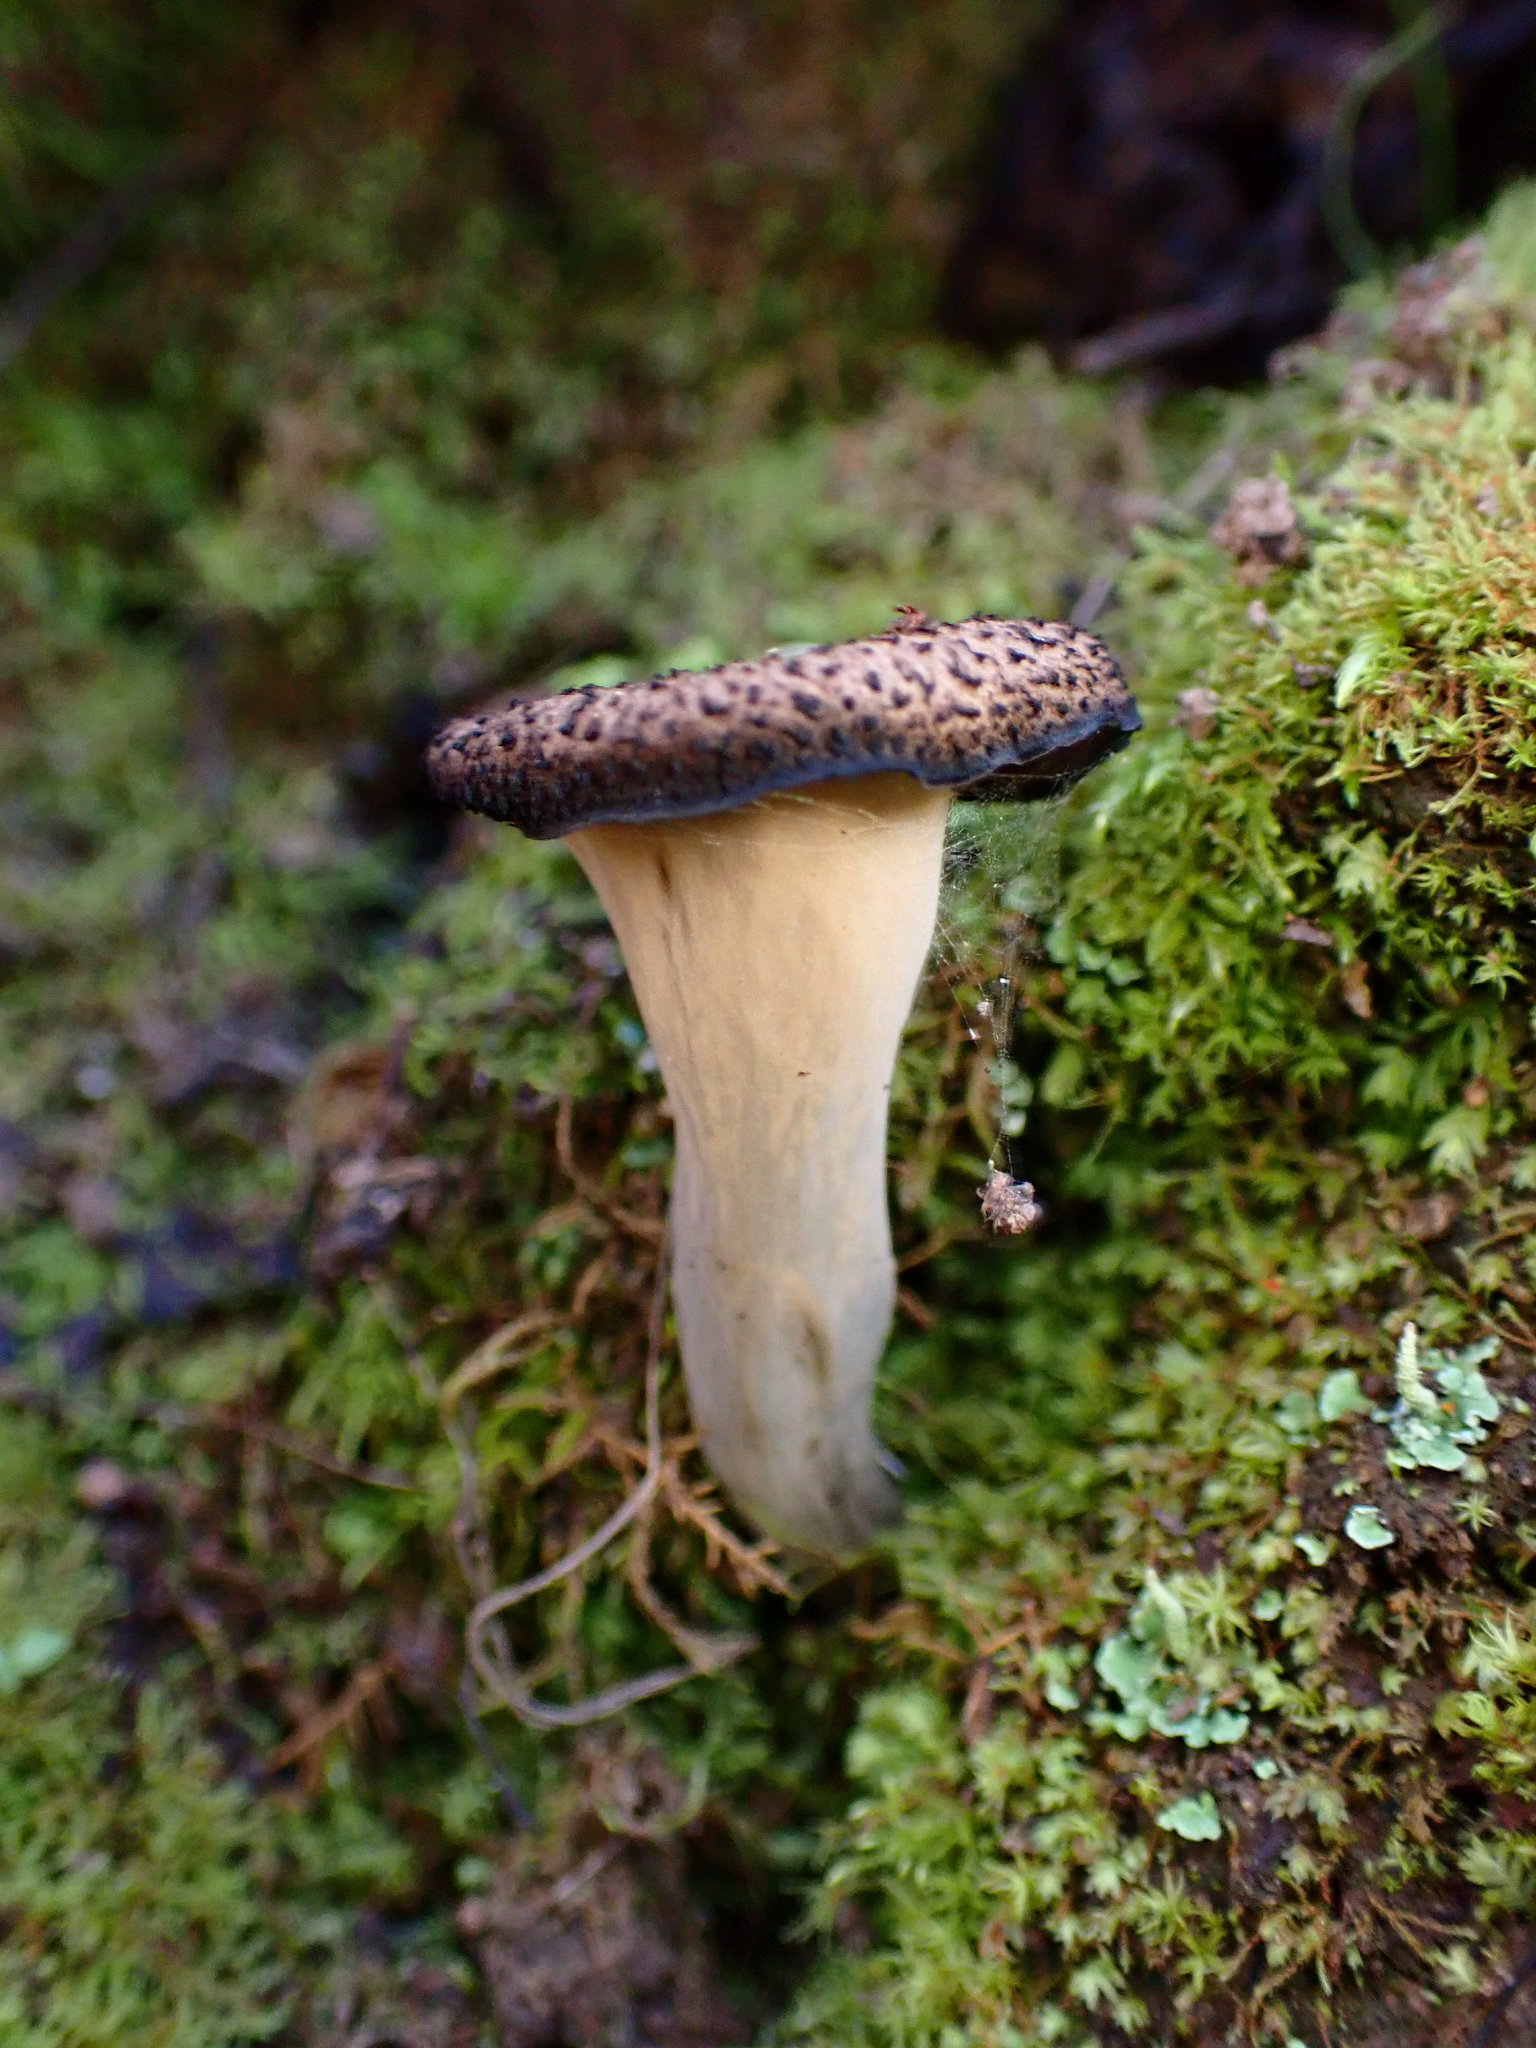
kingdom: Fungi
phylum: Basidiomycota
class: Agaricomycetes
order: Cantharellales
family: Hydnaceae
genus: Craterellus
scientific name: Craterellus calicornucopioides
